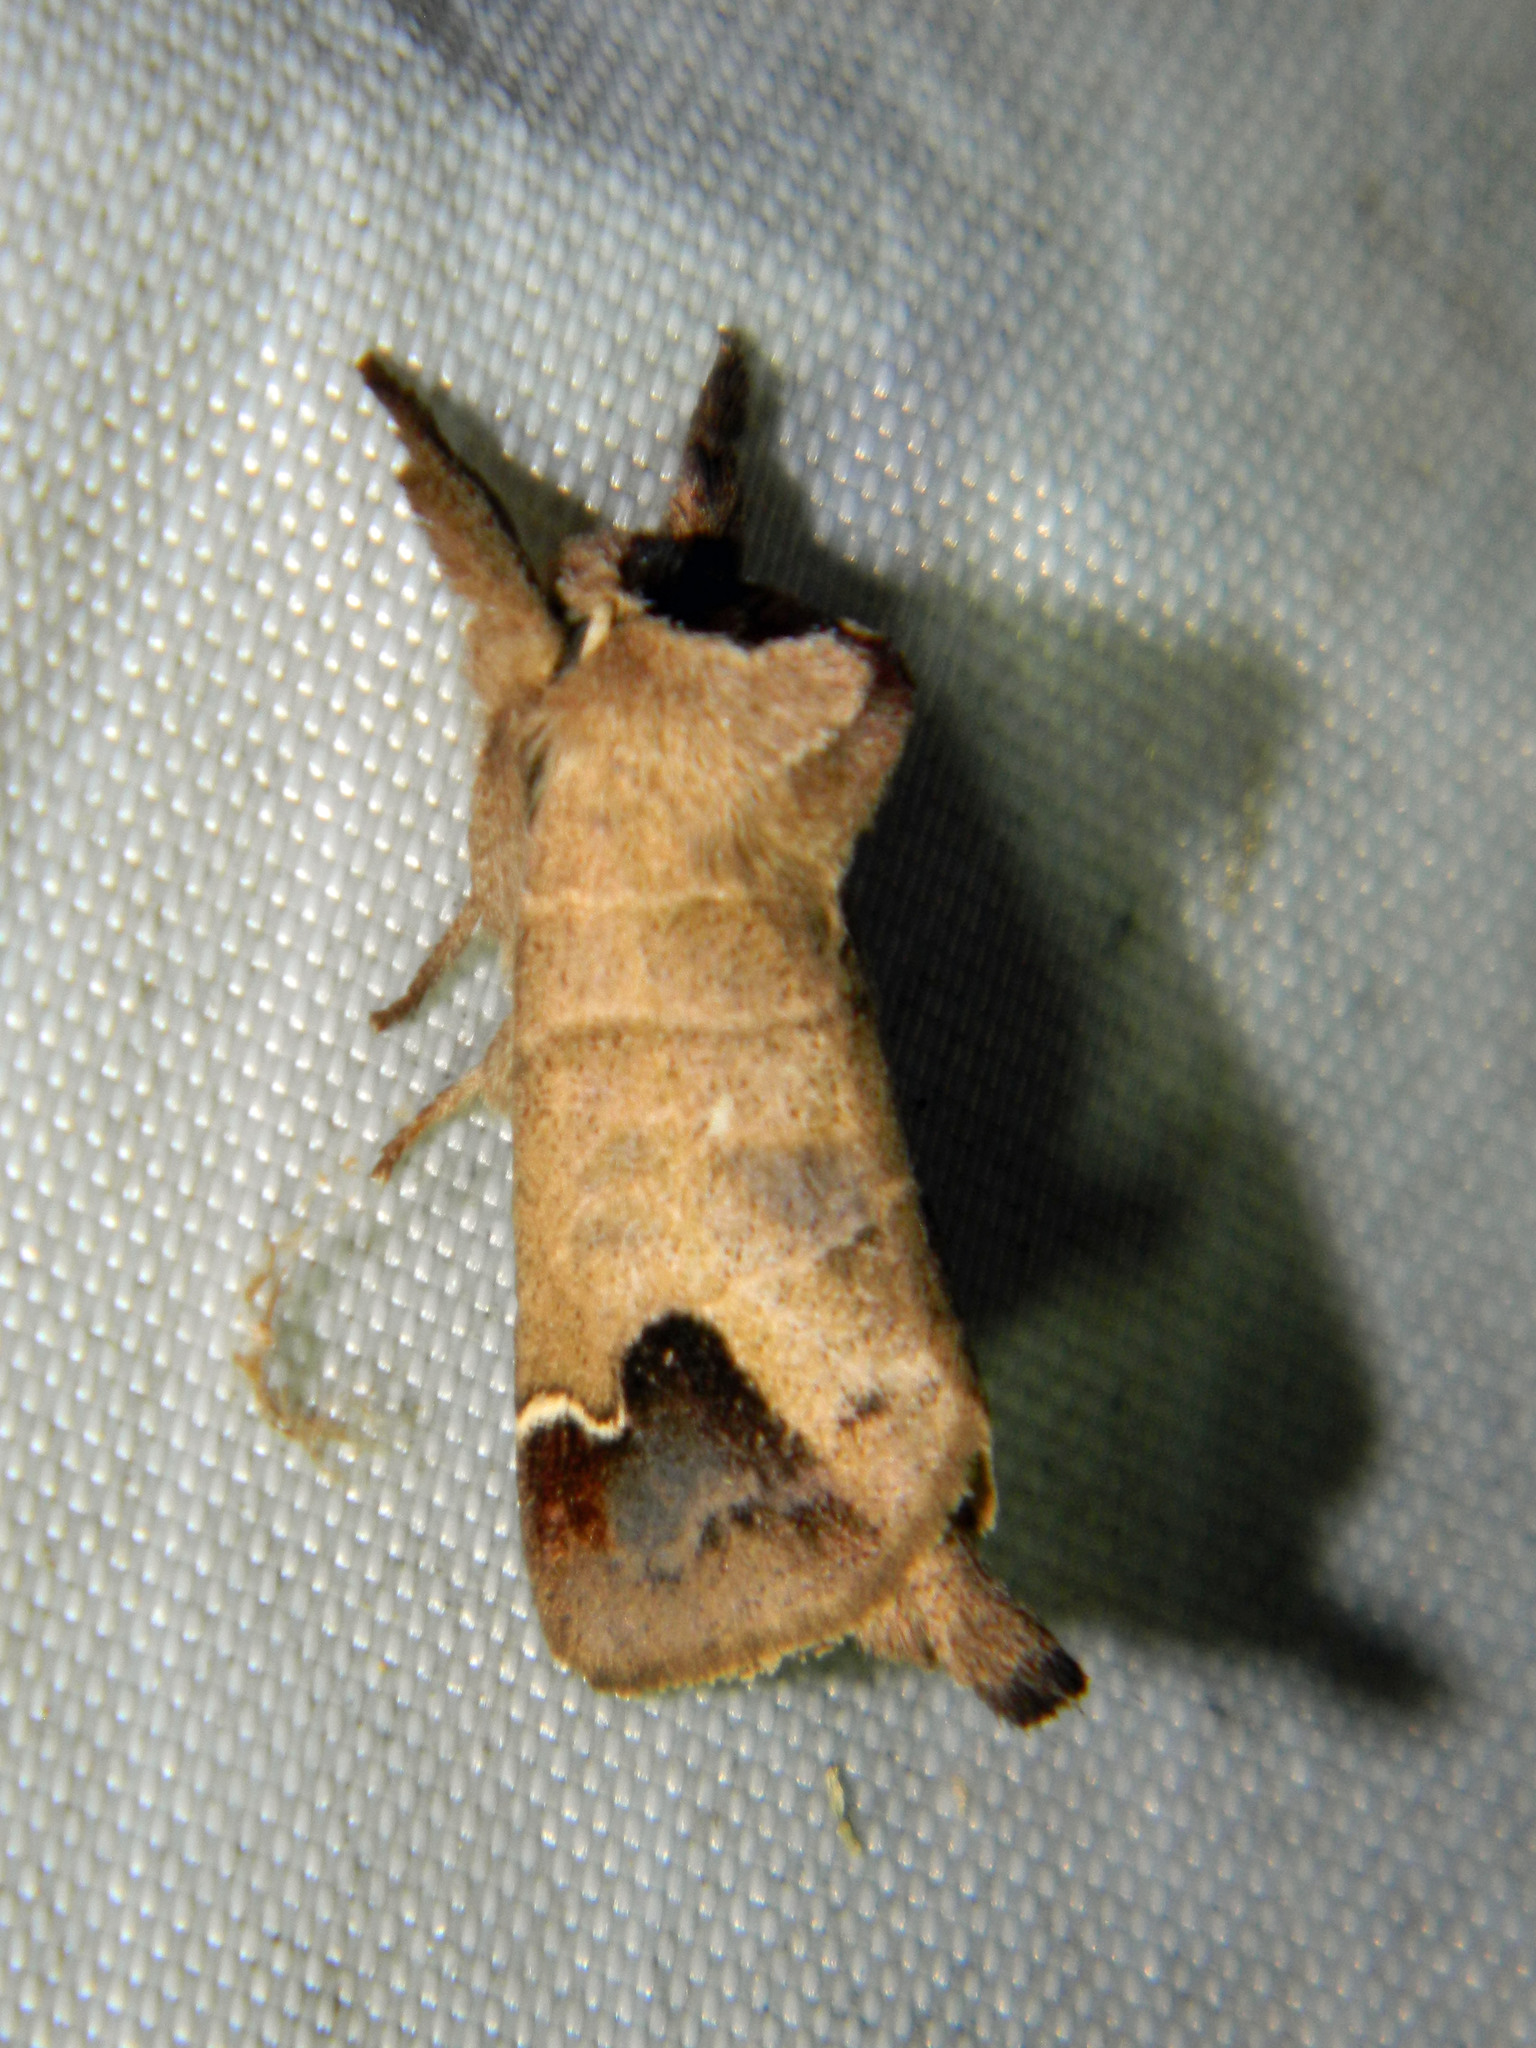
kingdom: Animalia
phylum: Arthropoda
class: Insecta
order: Lepidoptera
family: Notodontidae
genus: Clostera
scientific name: Clostera albosigma
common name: Sigmoid prominent
